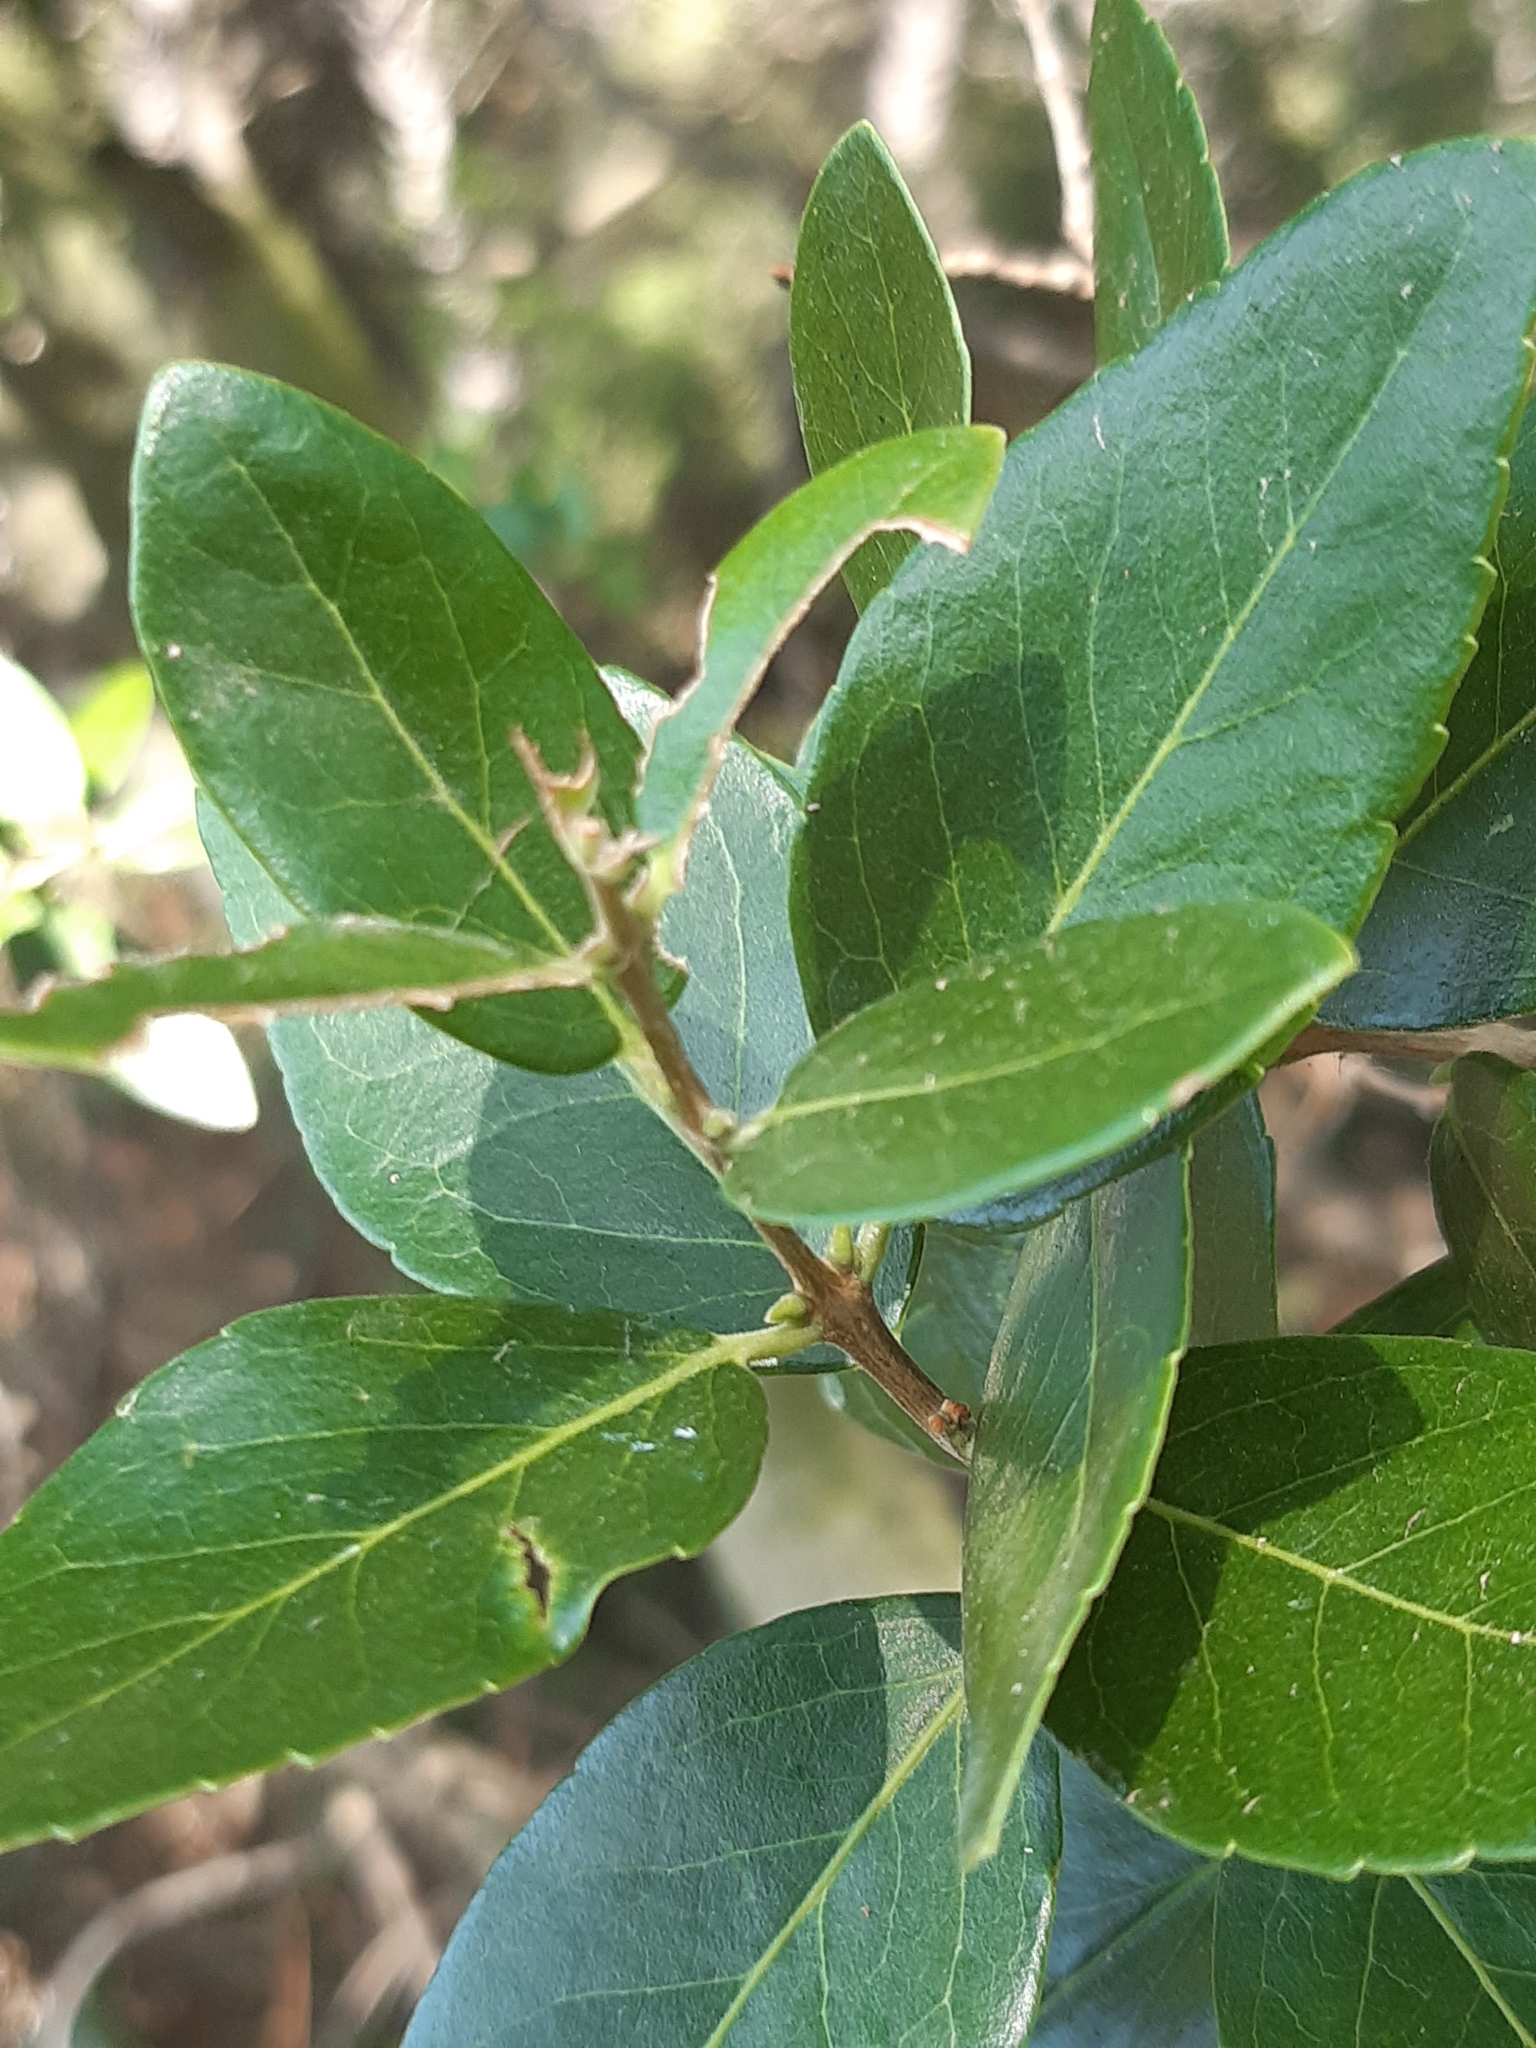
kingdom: Plantae
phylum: Tracheophyta
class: Magnoliopsida
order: Lamiales
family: Oleaceae
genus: Phillyrea
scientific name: Phillyrea latifolia
